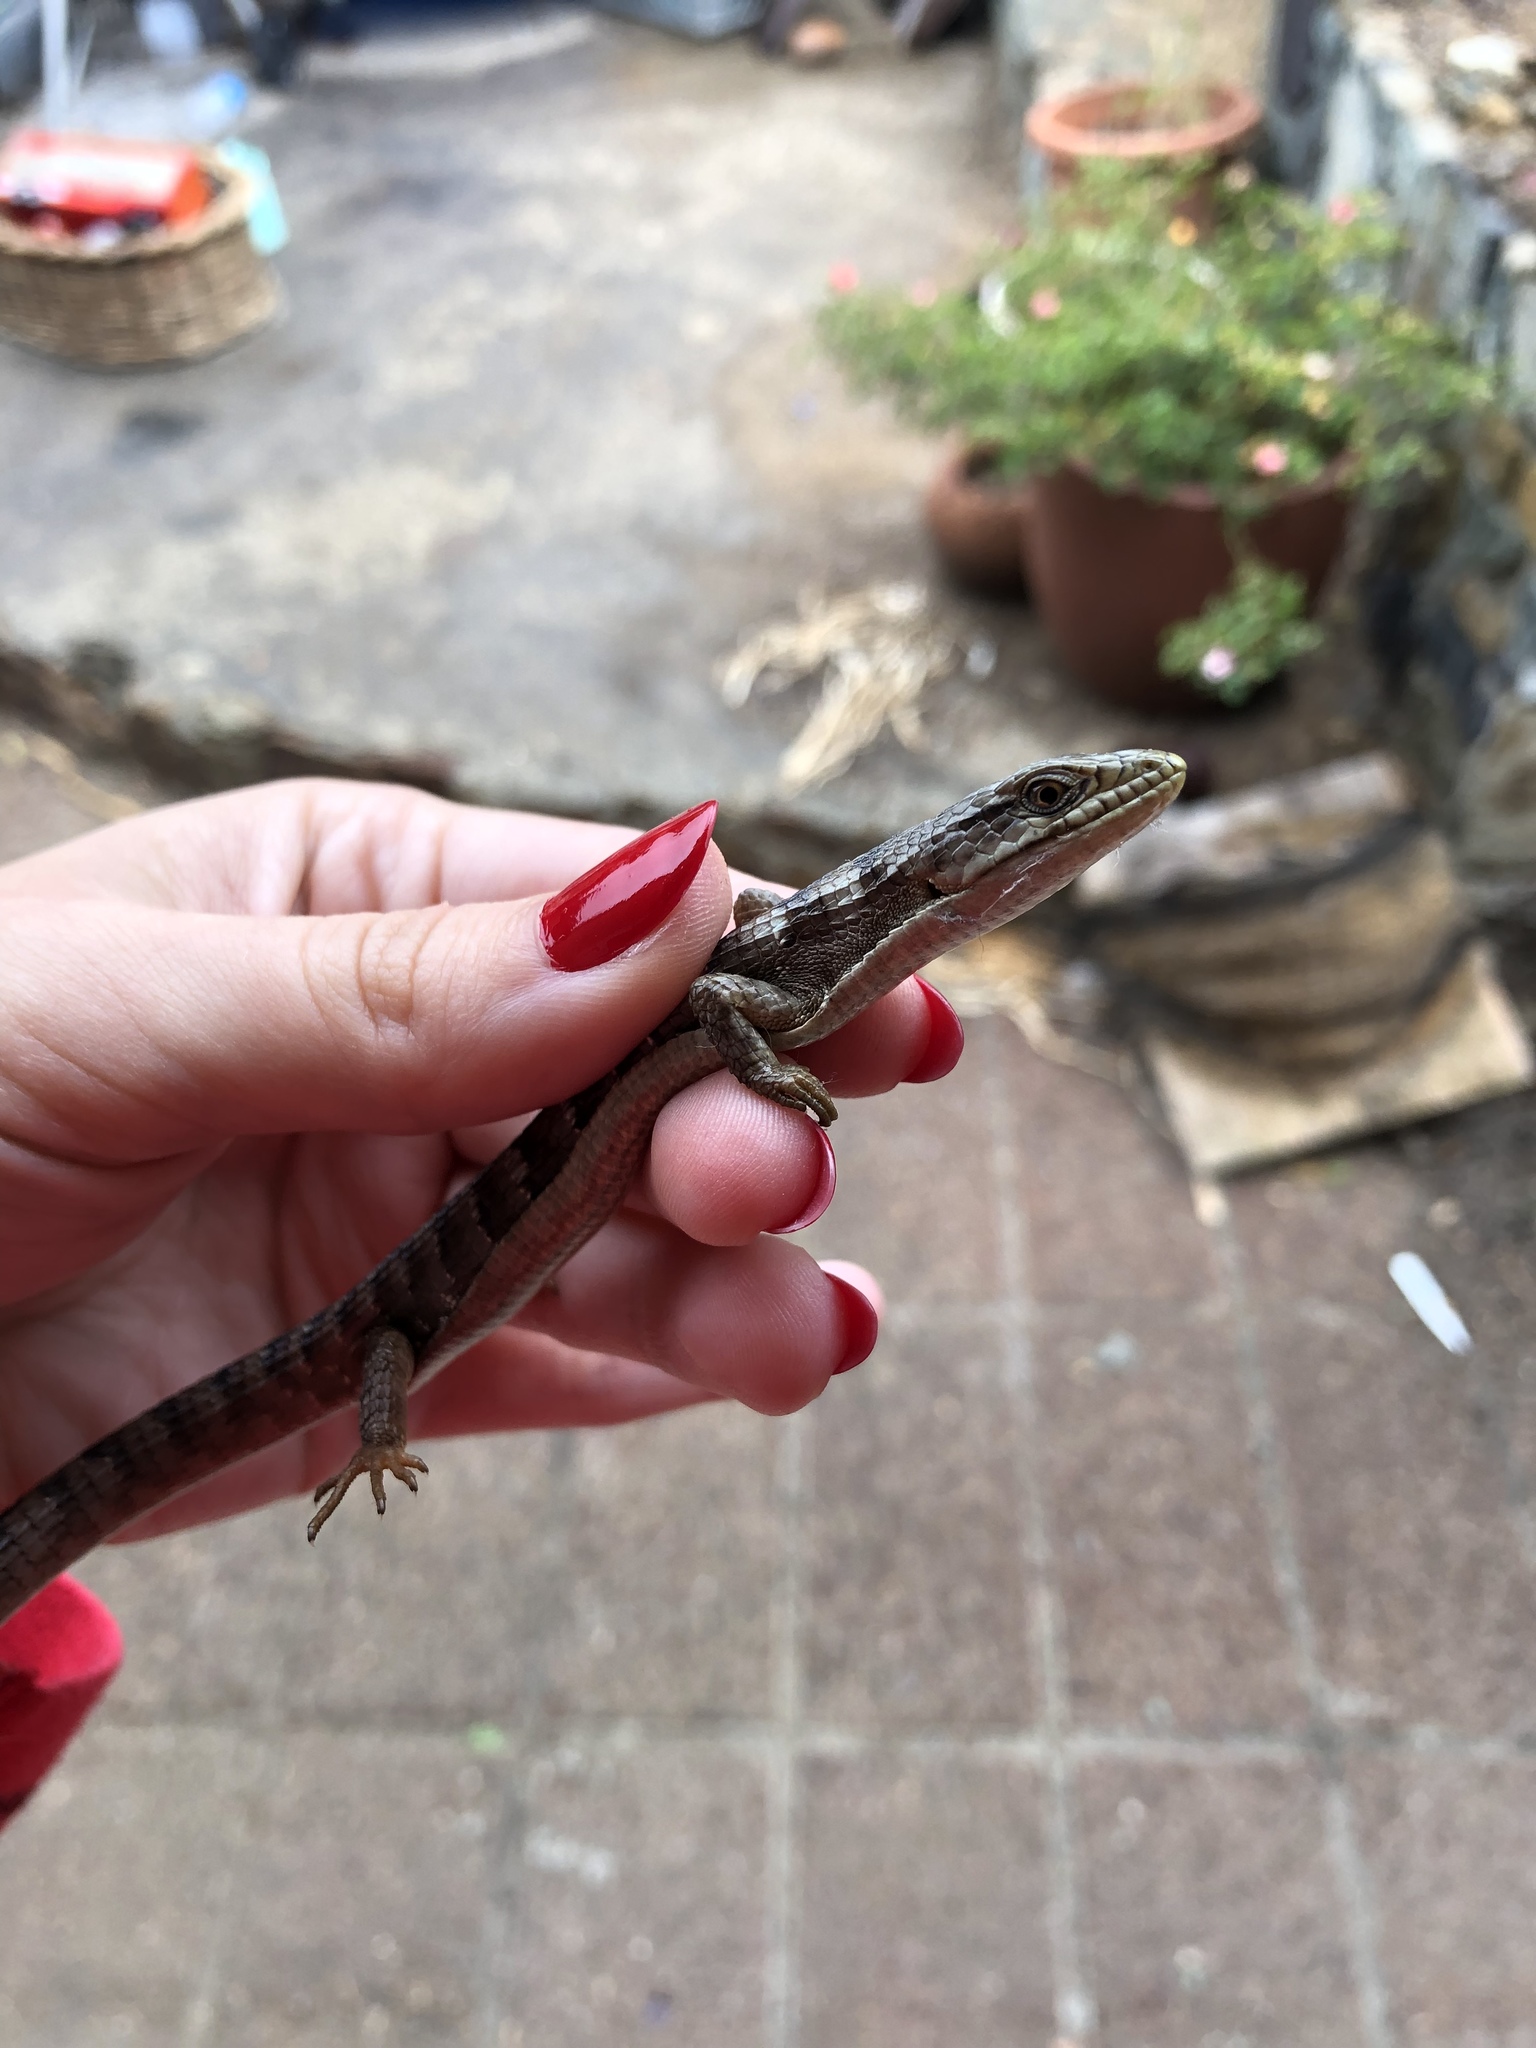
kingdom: Animalia
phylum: Chordata
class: Squamata
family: Anguidae
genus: Elgaria
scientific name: Elgaria multicarinata
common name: Southern alligator lizard
